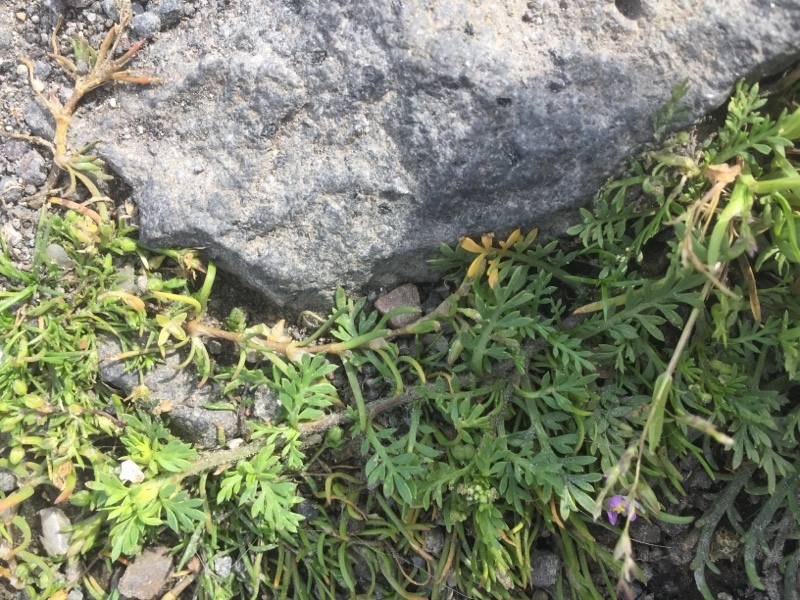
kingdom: Plantae
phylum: Tracheophyta
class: Magnoliopsida
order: Brassicales
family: Brassicaceae
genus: Lepidium
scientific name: Lepidium didymum
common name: Lesser swinecress
